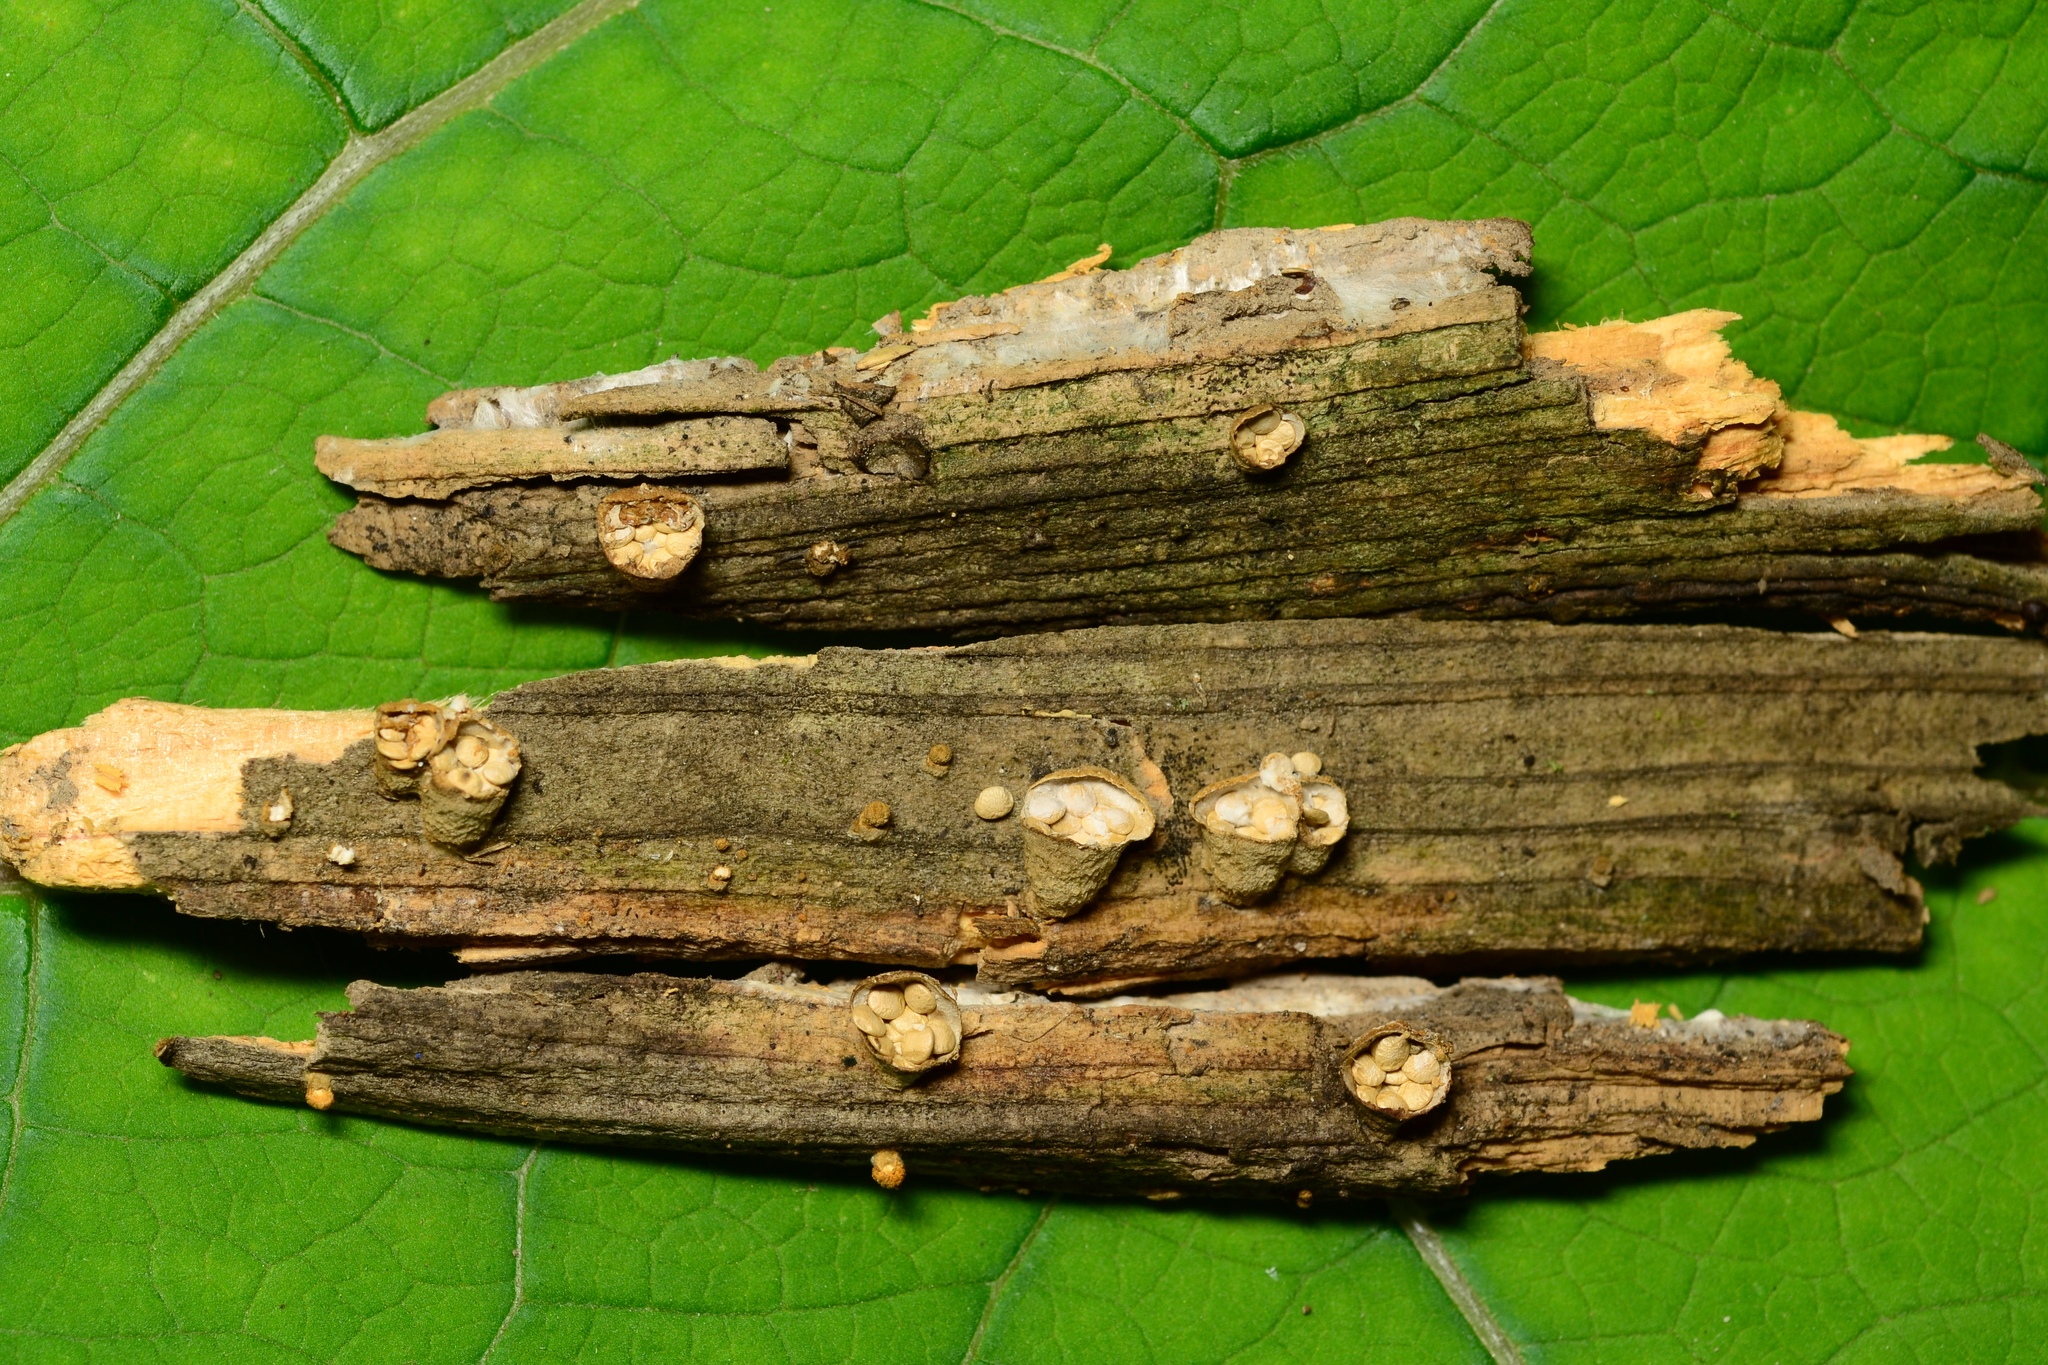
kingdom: Fungi
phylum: Basidiomycota
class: Agaricomycetes
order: Agaricales
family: Nidulariaceae
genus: Crucibulum
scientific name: Crucibulum laeve
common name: Common bird's nest
